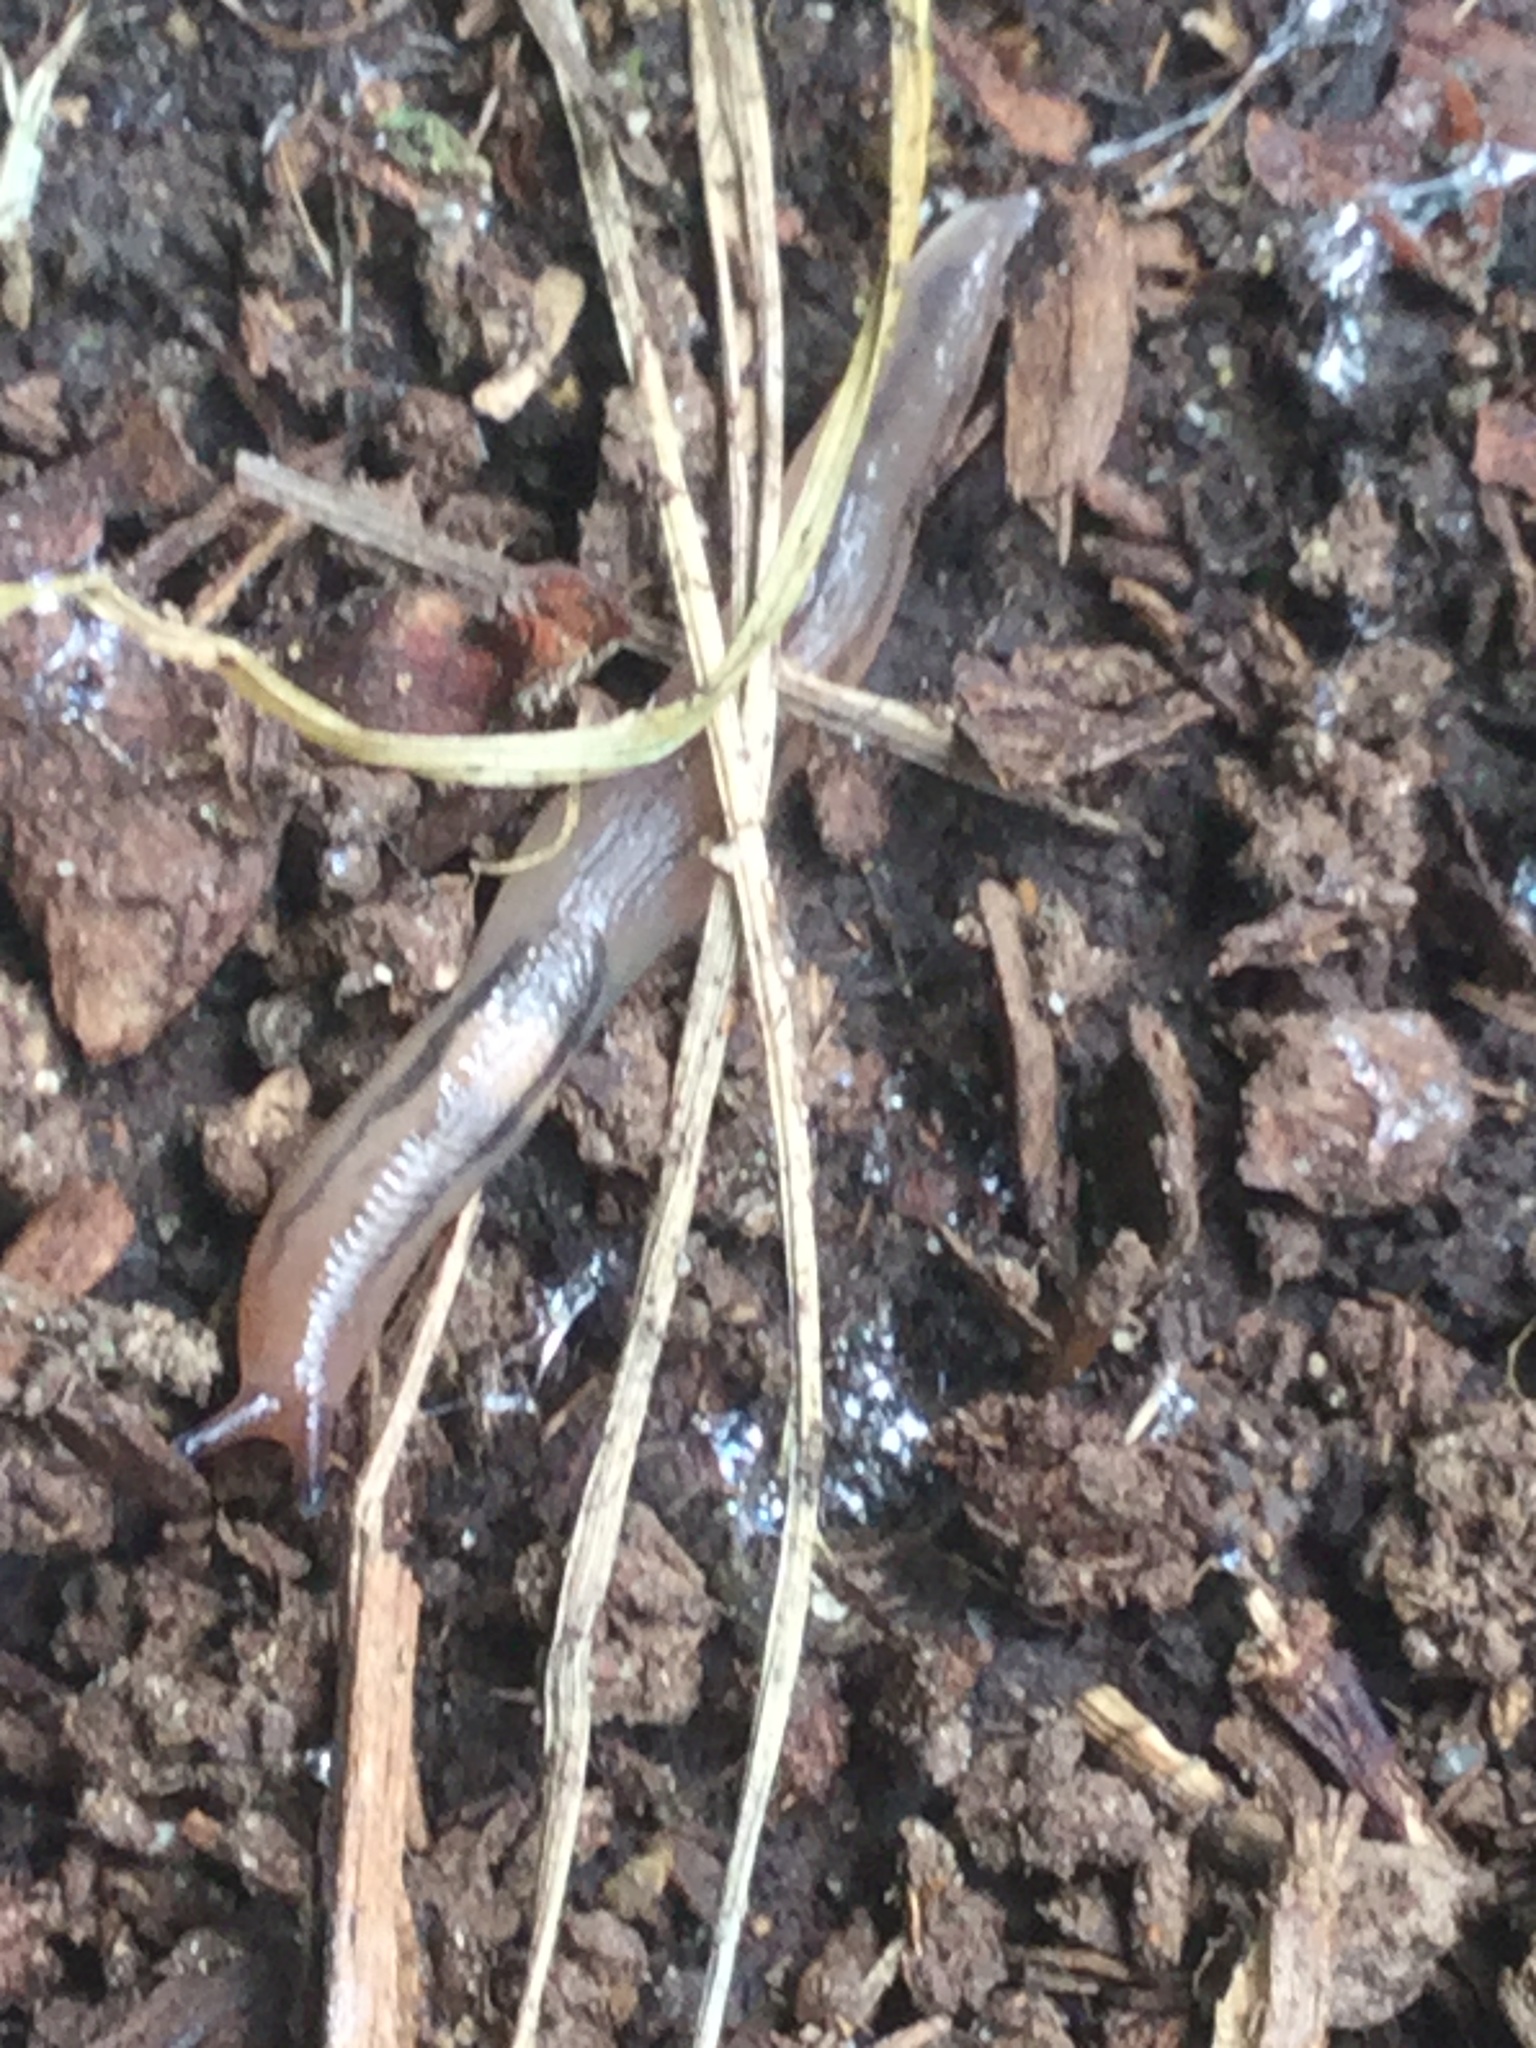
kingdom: Animalia
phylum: Mollusca
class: Gastropoda
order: Stylommatophora
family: Limacidae
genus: Ambigolimax
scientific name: Ambigolimax
